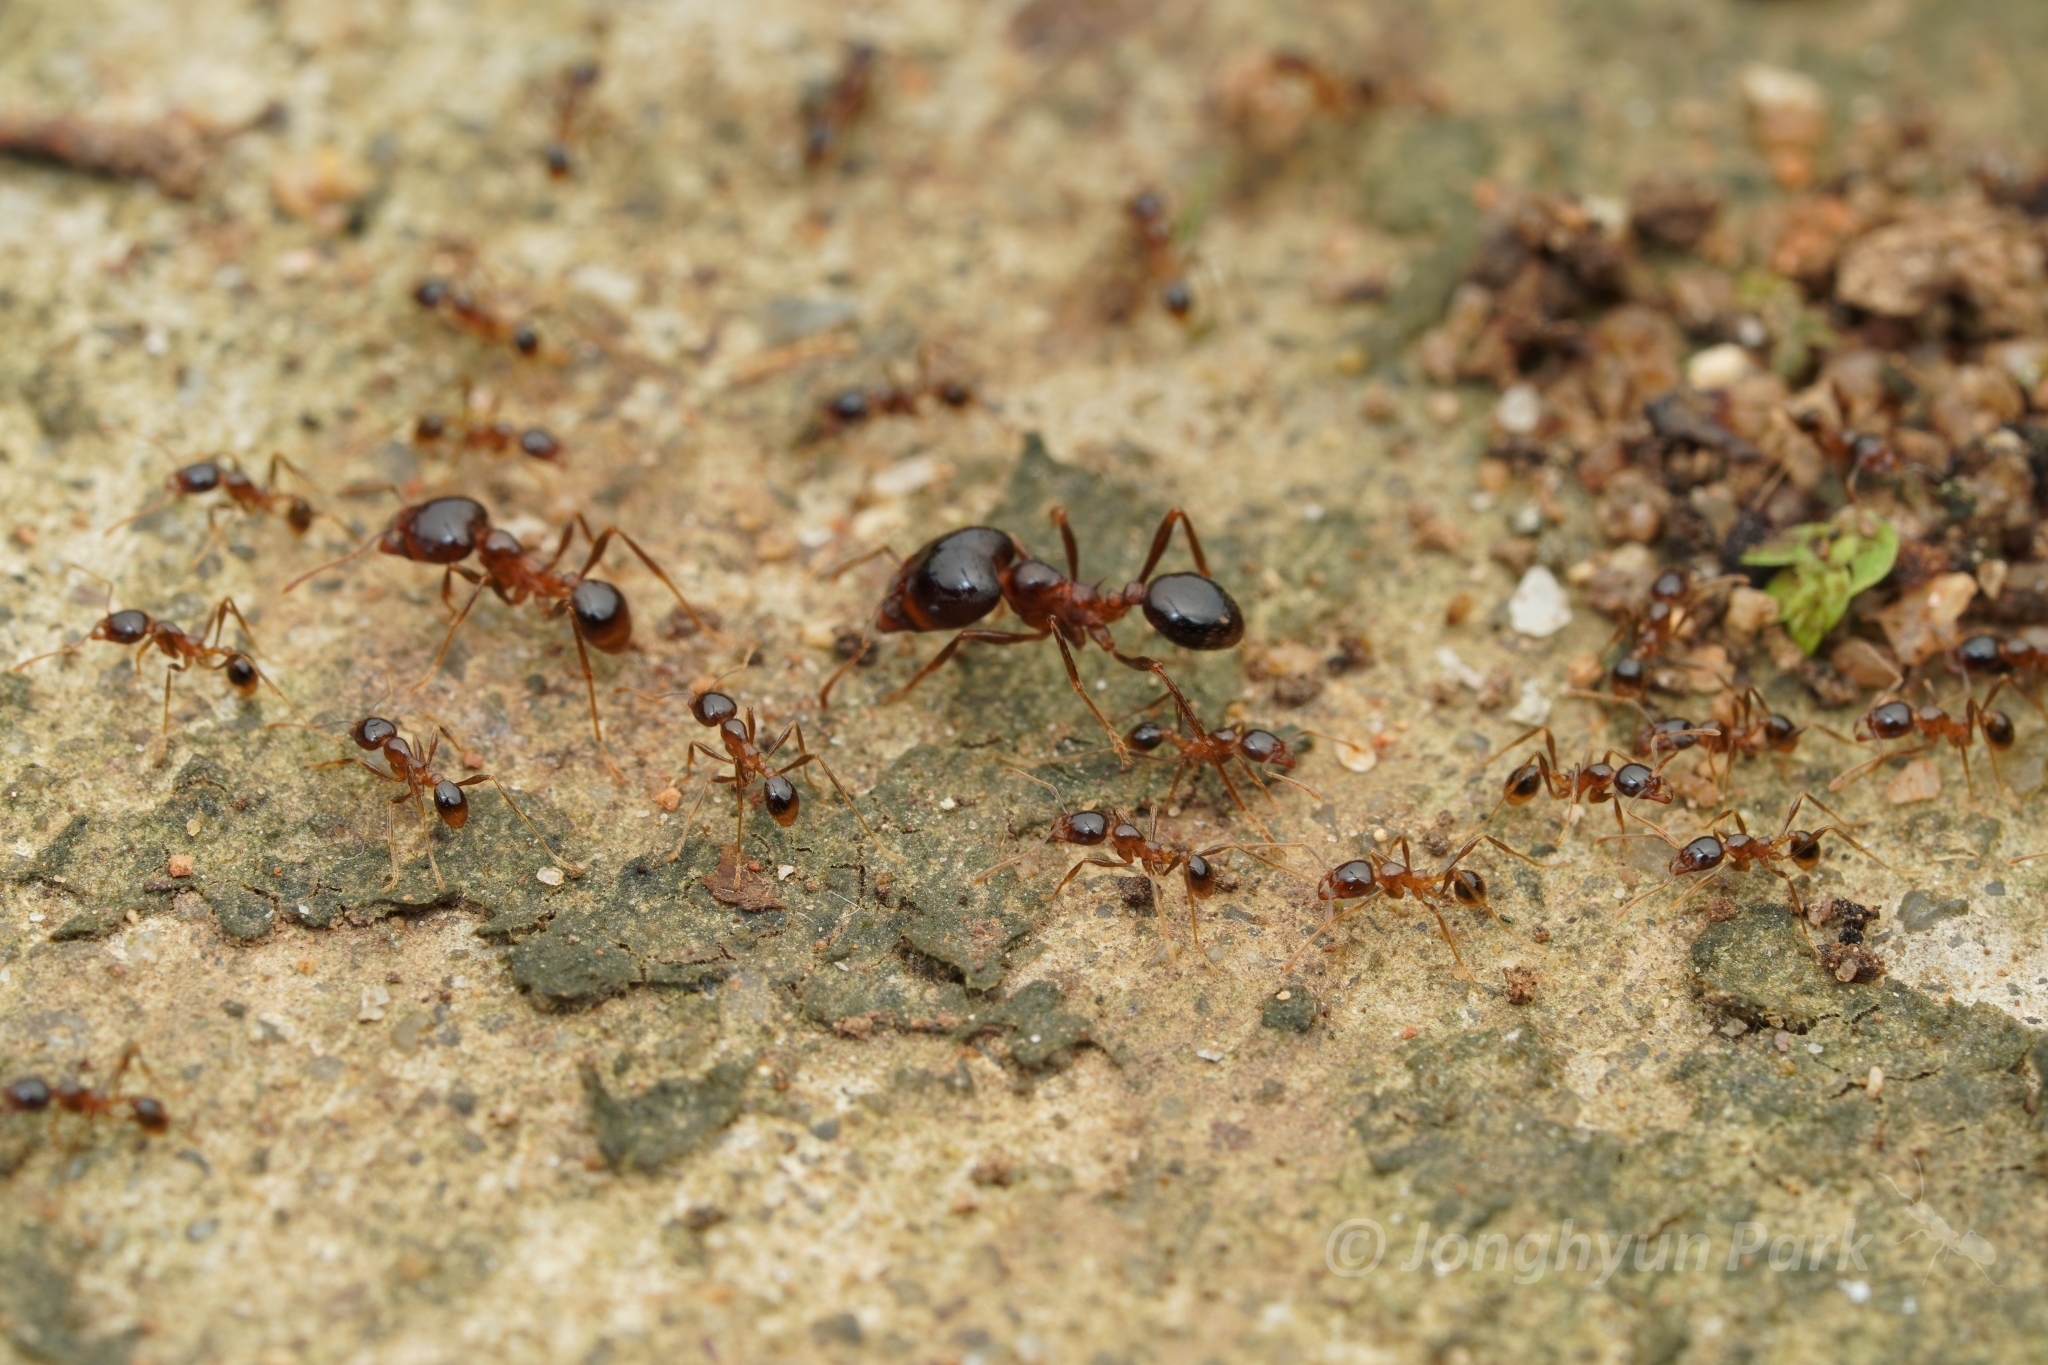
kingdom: Animalia
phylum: Arthropoda
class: Insecta
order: Hymenoptera
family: Formicidae
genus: Pheidologeton
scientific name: Pheidologeton diversus
